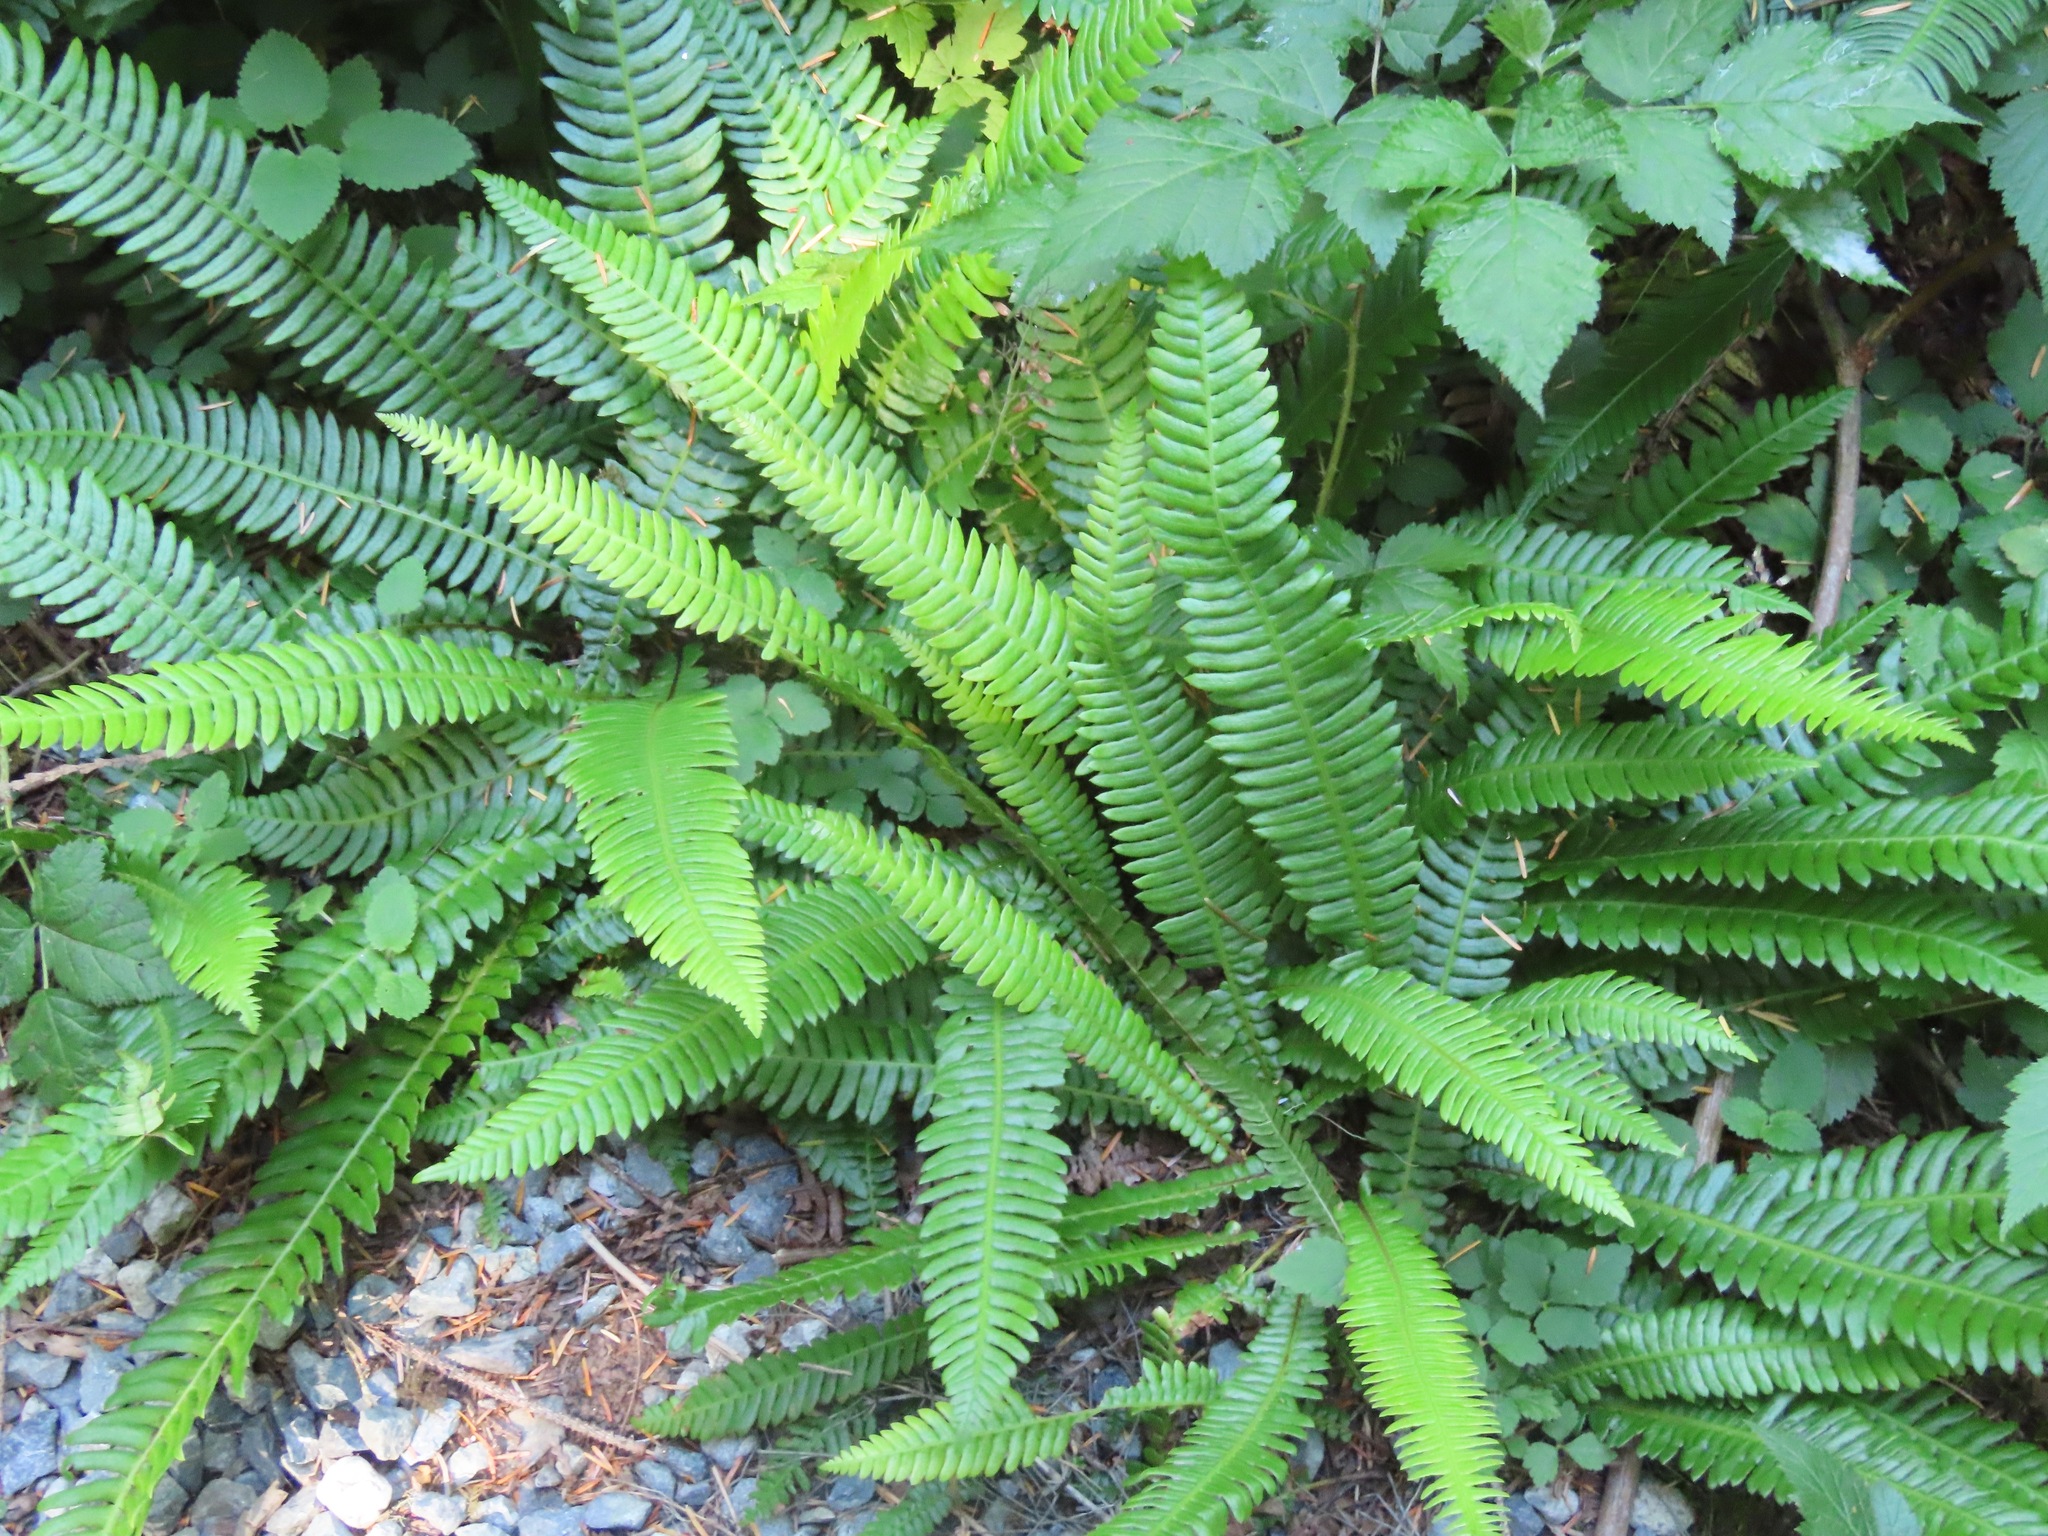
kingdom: Plantae
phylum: Tracheophyta
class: Polypodiopsida
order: Polypodiales
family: Blechnaceae
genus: Struthiopteris
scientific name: Struthiopteris spicant
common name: Deer fern
